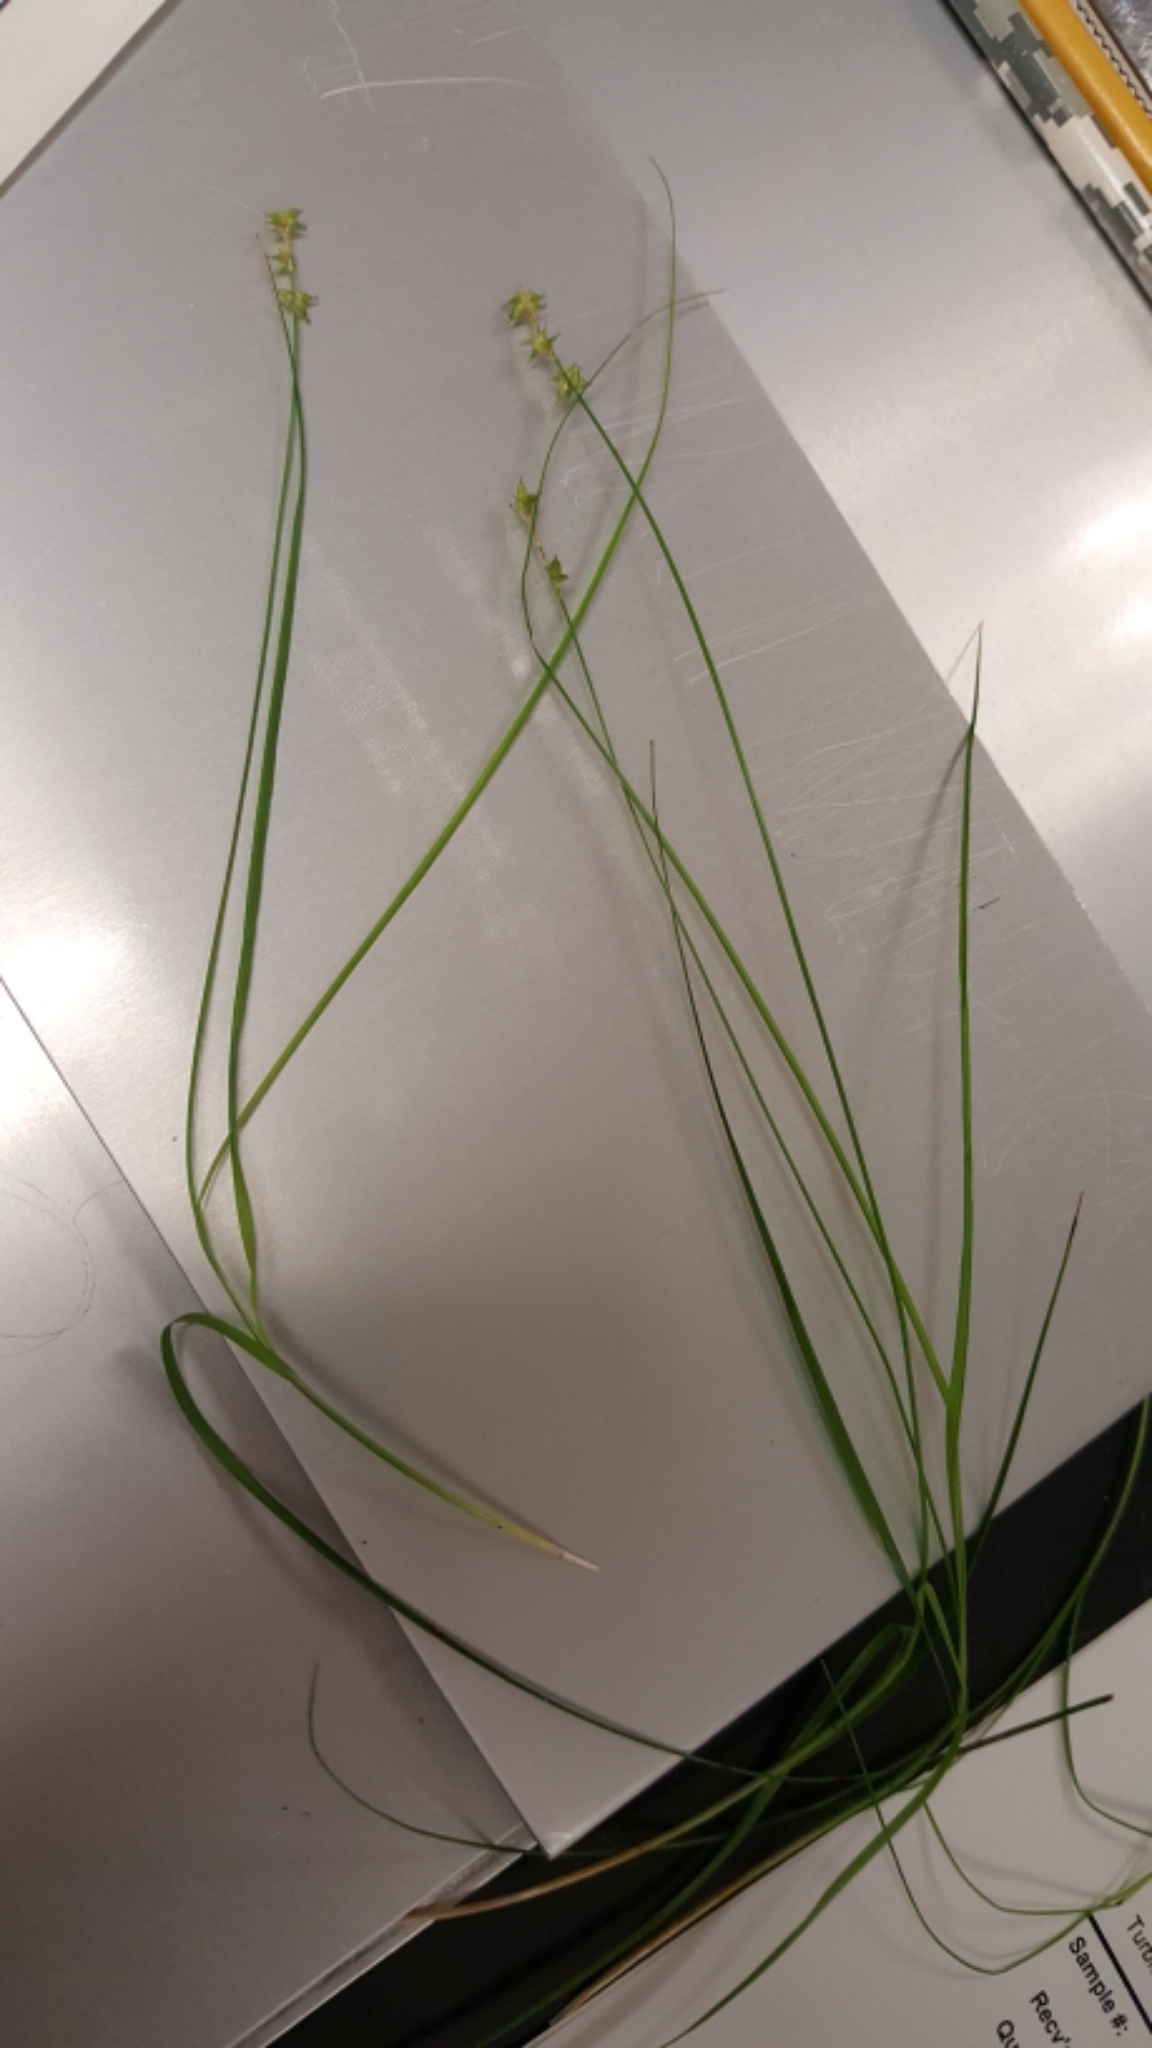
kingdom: Plantae
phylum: Tracheophyta
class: Liliopsida
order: Poales
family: Cyperaceae
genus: Carex
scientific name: Carex interior
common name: Inland sedge
